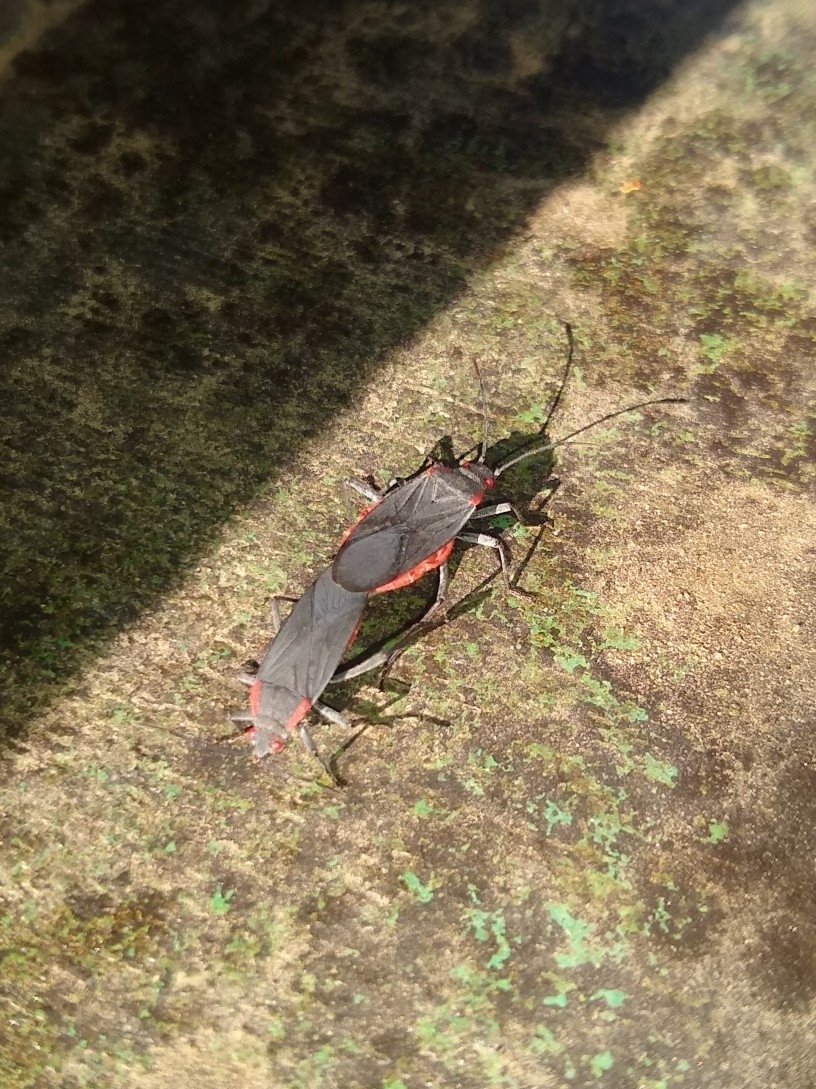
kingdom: Animalia
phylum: Arthropoda
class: Insecta
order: Hemiptera
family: Rhopalidae
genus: Jadera
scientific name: Jadera haematoloma
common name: Red-shouldered bug
